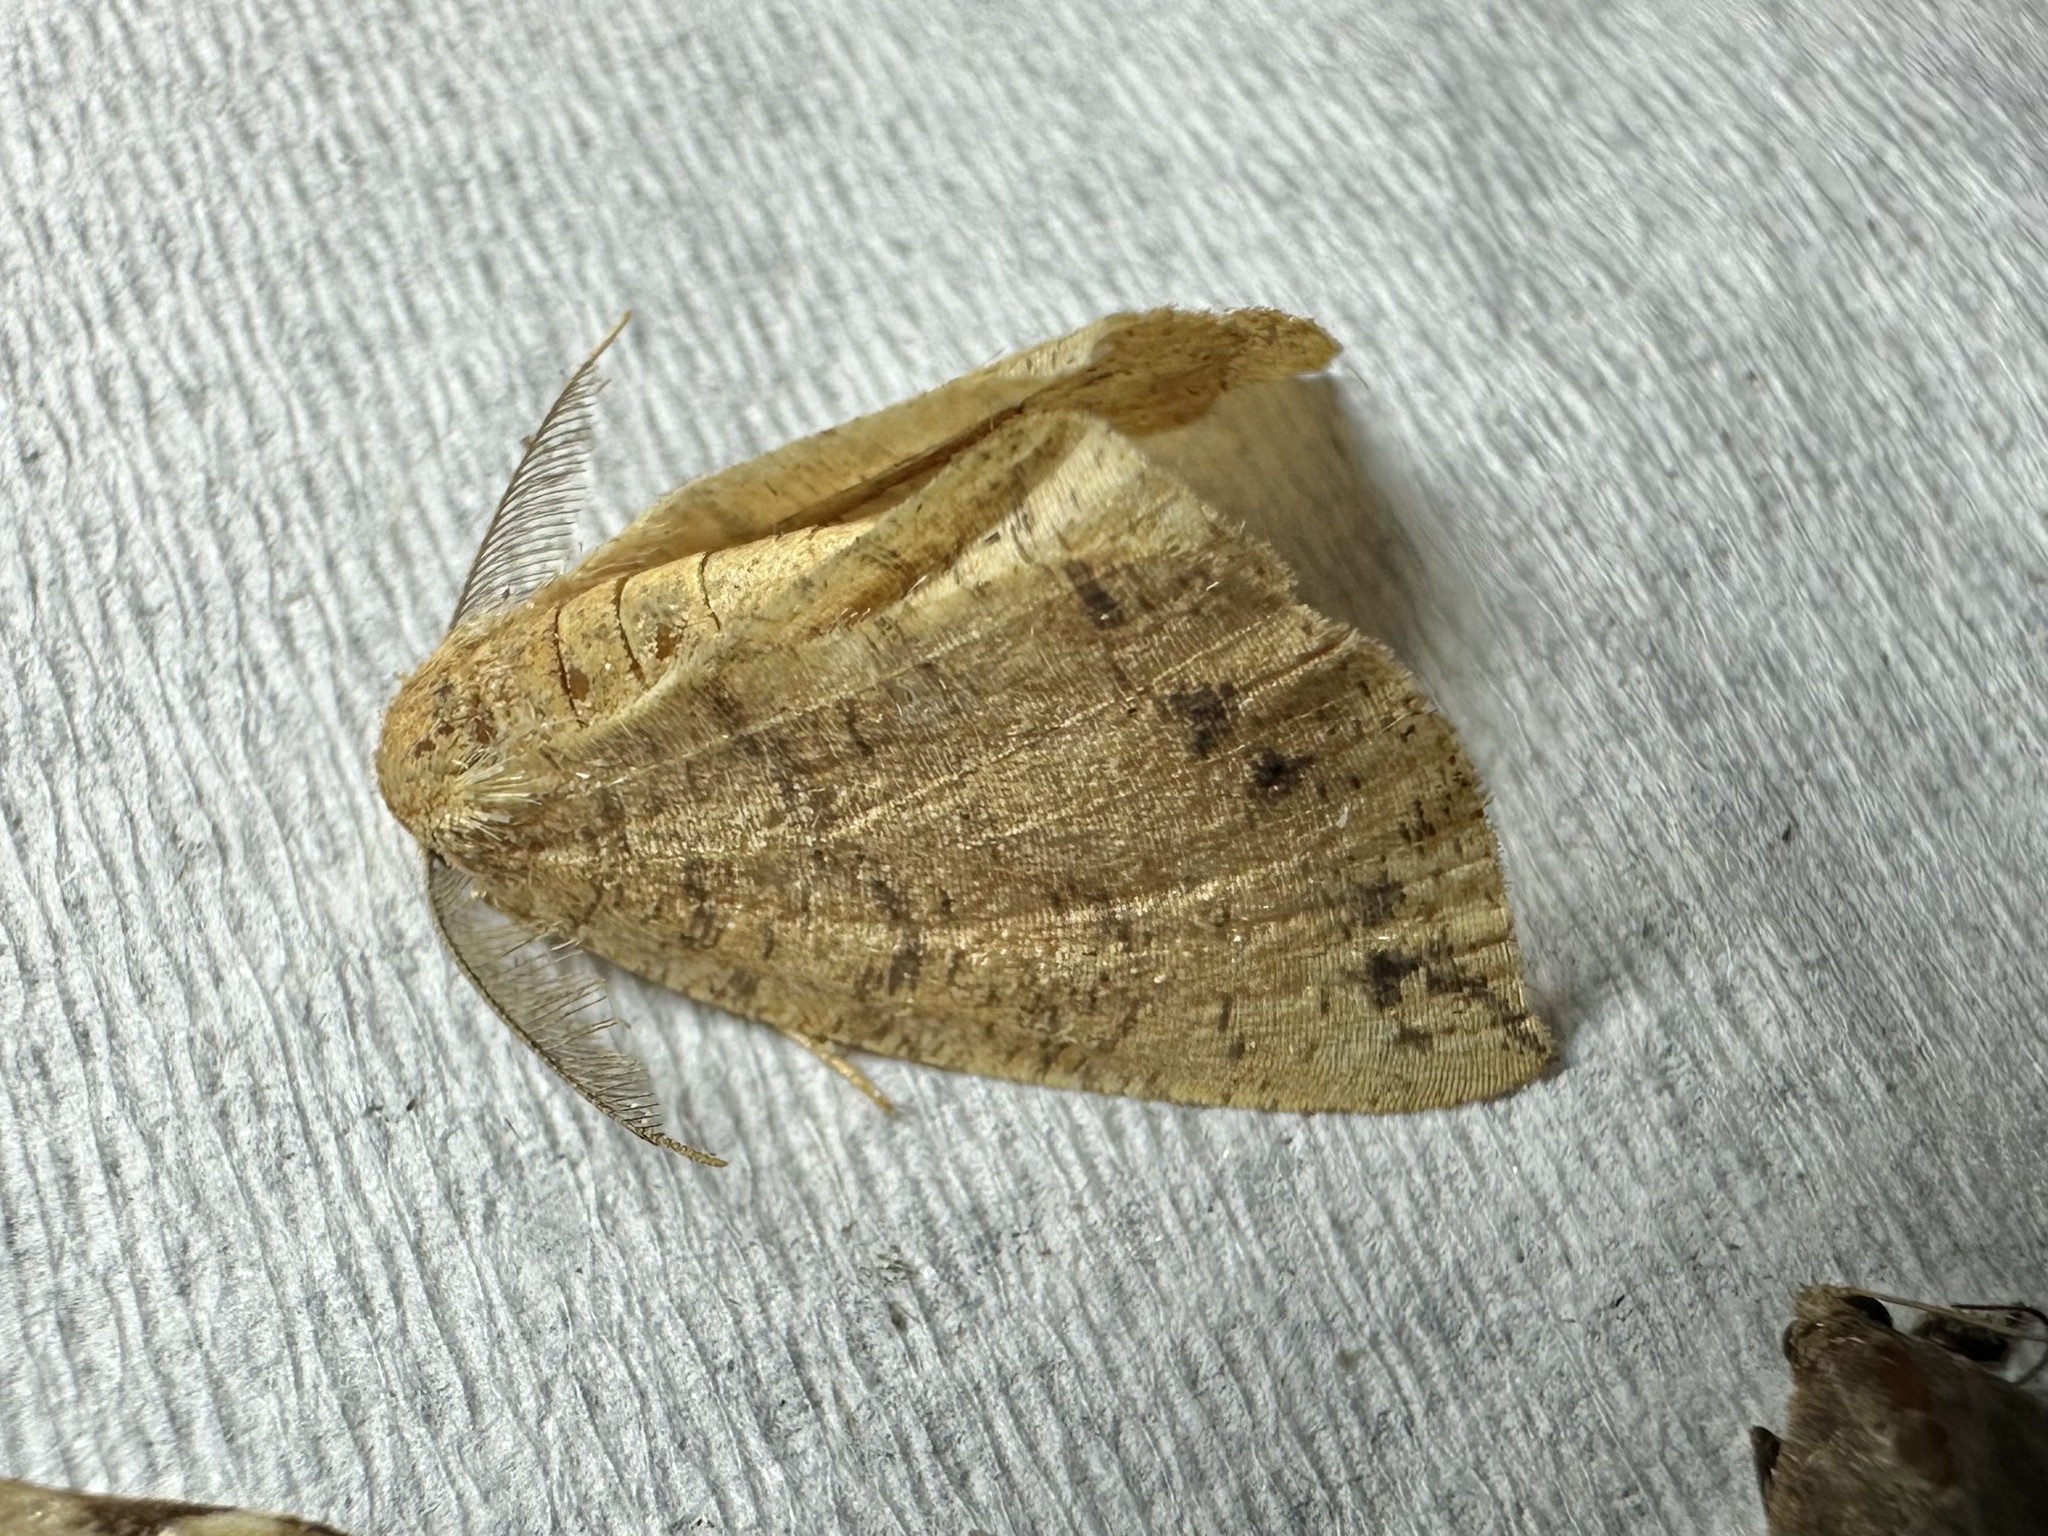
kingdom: Animalia
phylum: Arthropoda
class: Insecta
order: Lepidoptera
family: Geometridae
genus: Apodrepanulatrix
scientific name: Apodrepanulatrix liberaria
